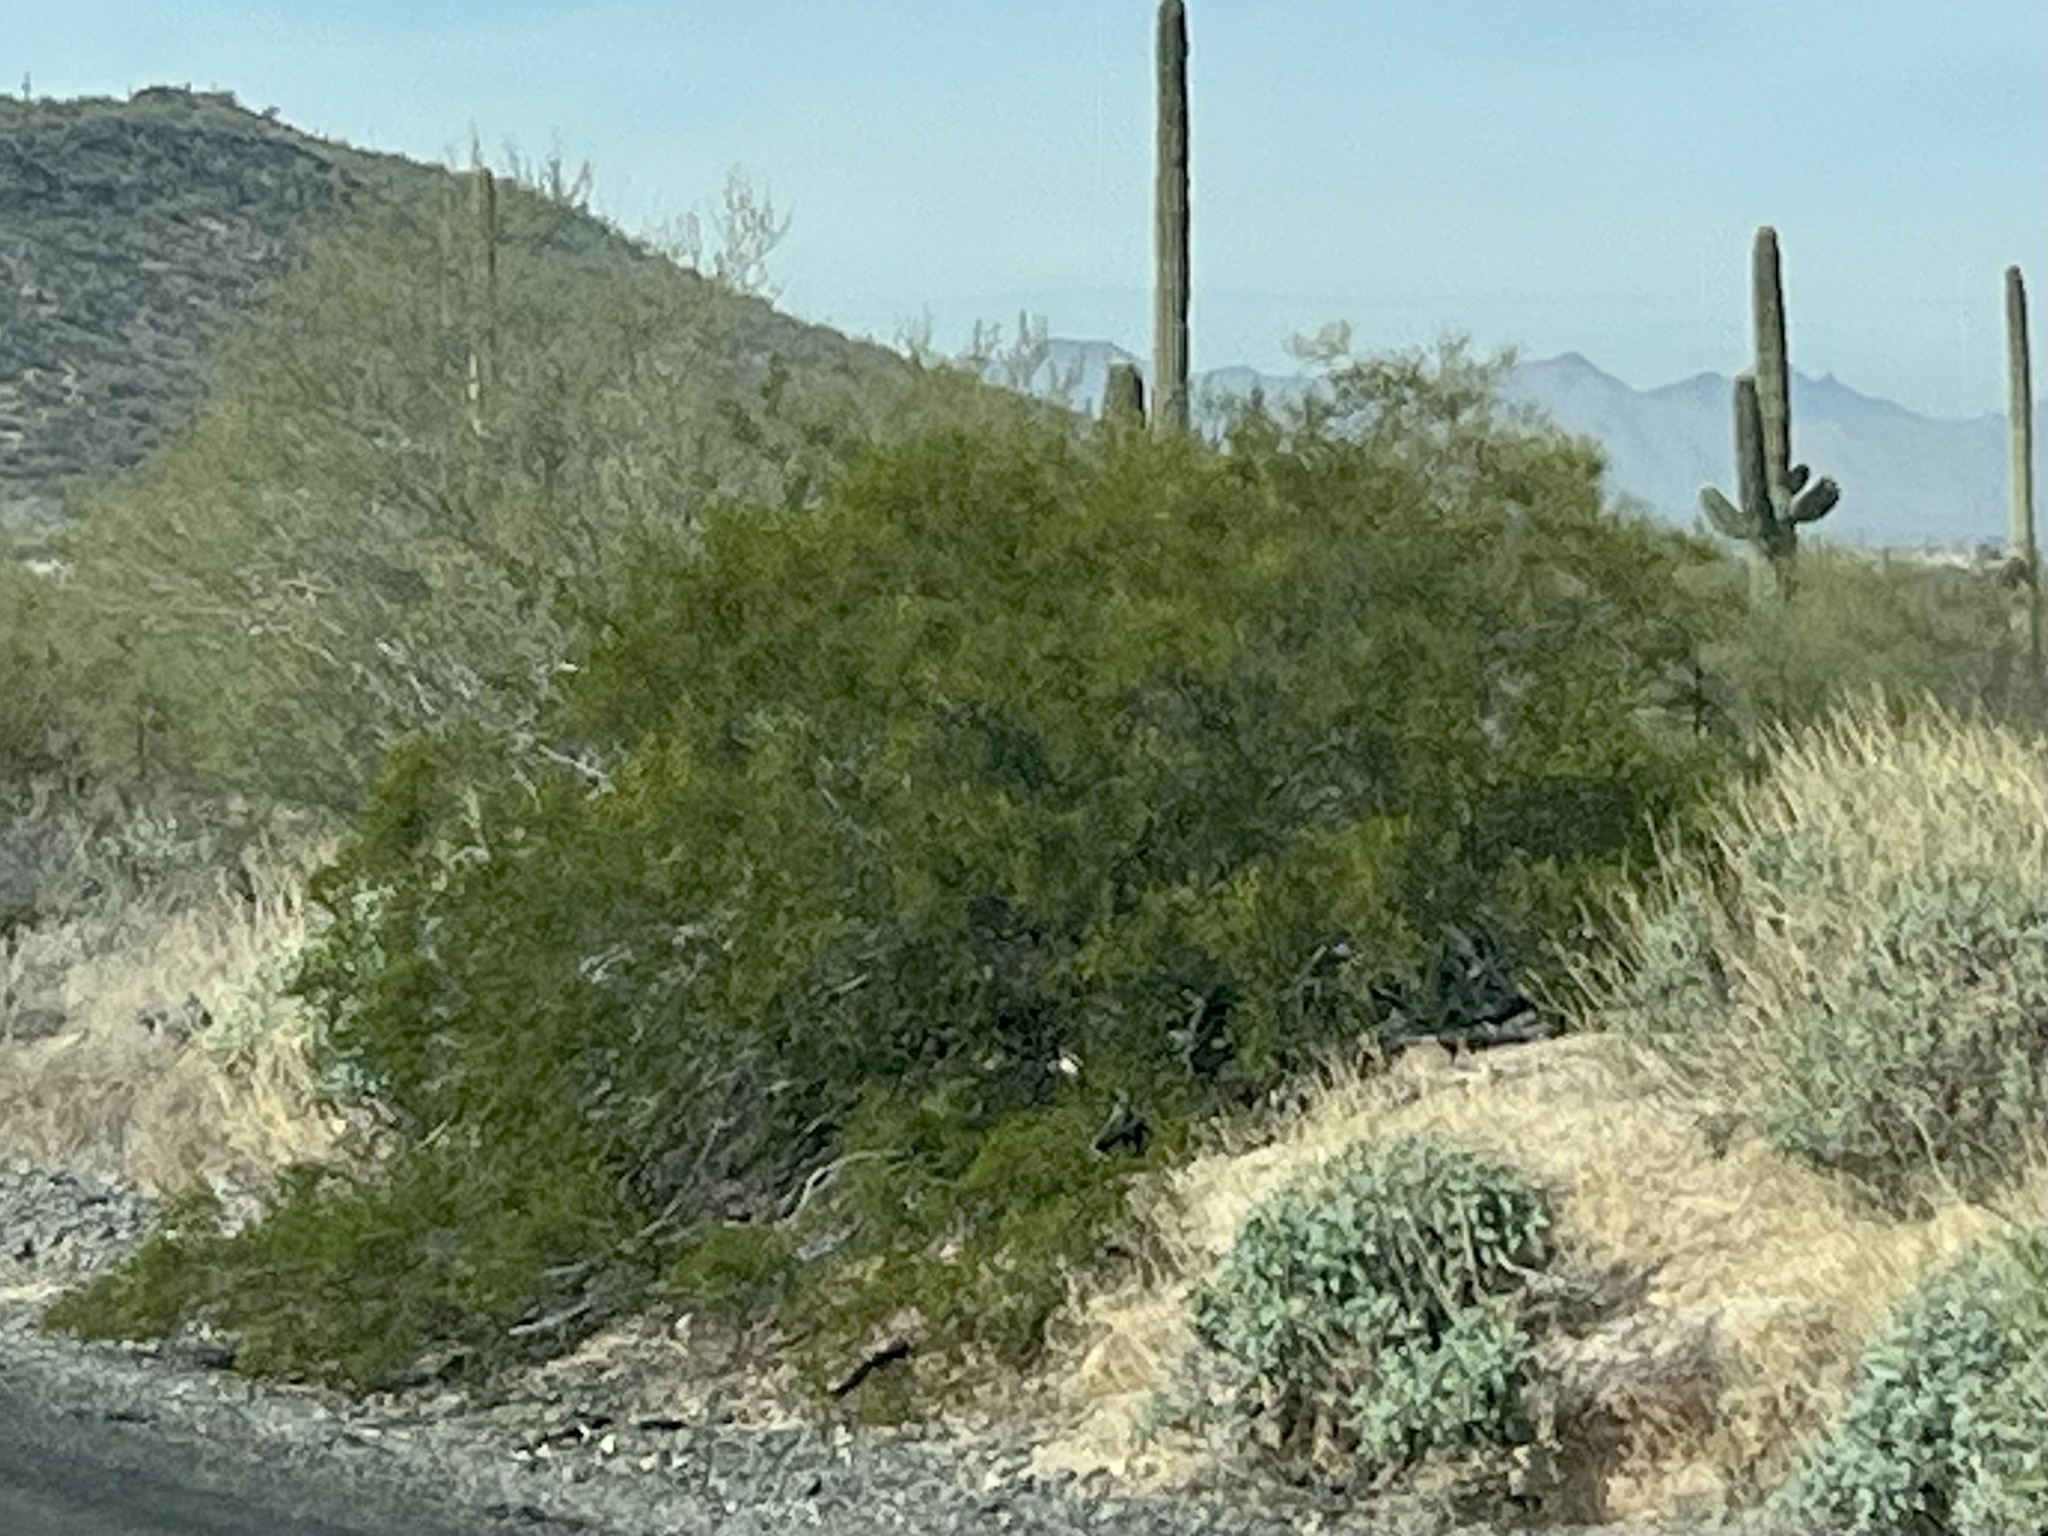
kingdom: Plantae
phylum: Tracheophyta
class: Magnoliopsida
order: Zygophyllales
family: Zygophyllaceae
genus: Larrea
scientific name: Larrea tridentata
